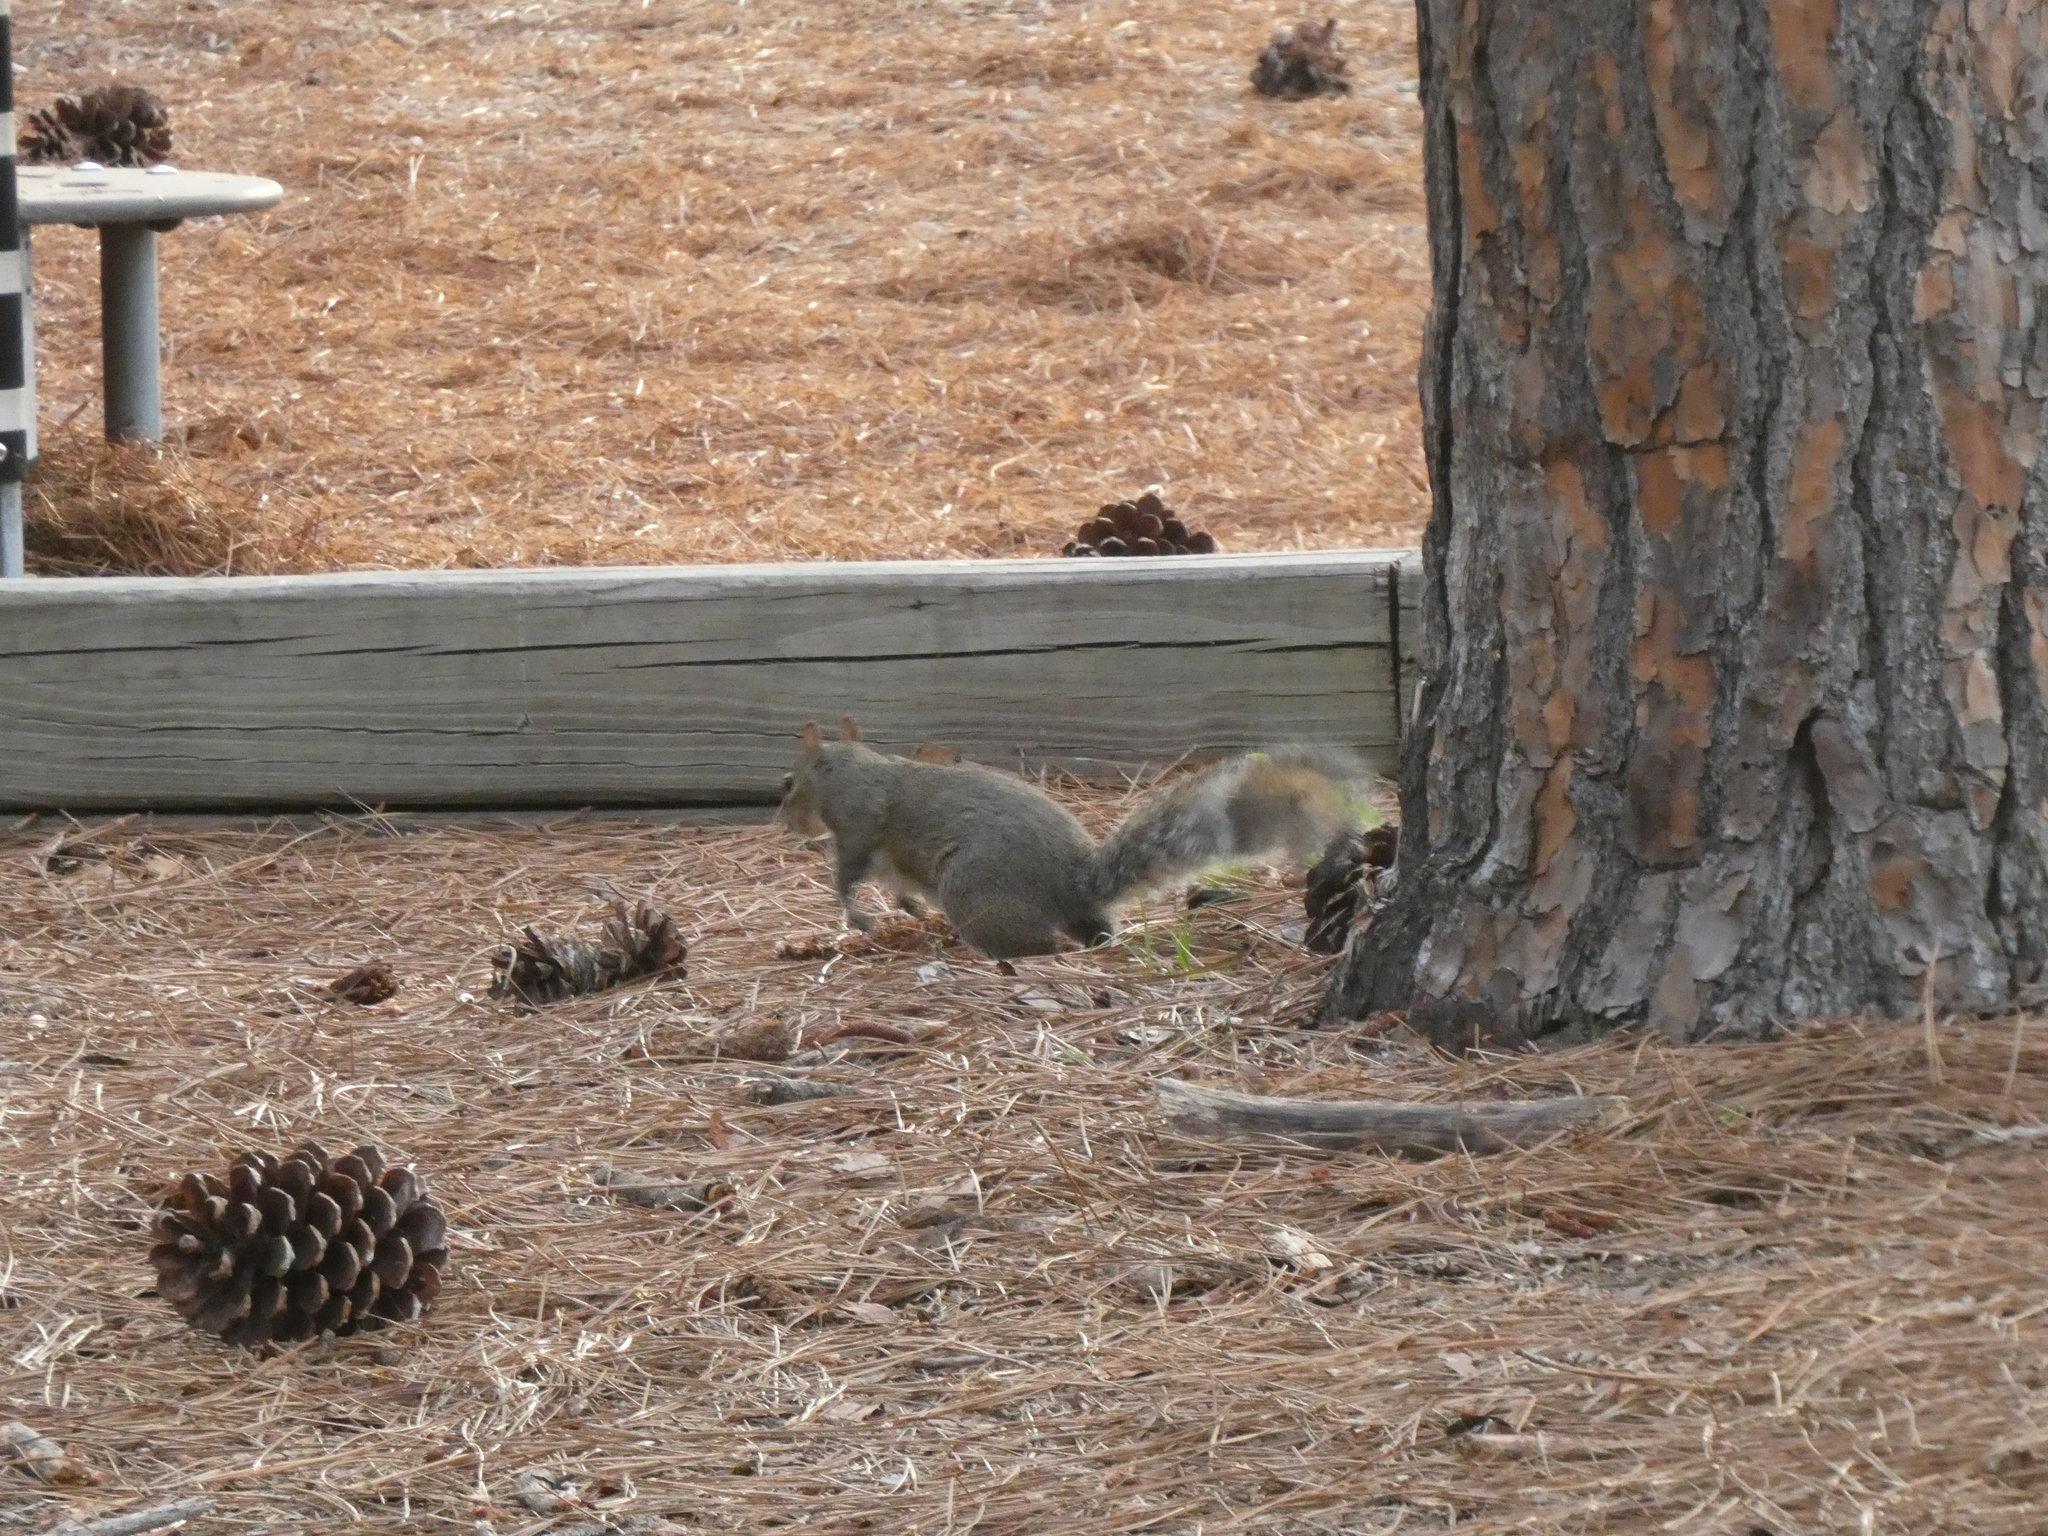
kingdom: Animalia
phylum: Chordata
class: Mammalia
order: Rodentia
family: Sciuridae
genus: Sciurus
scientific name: Sciurus carolinensis
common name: Eastern gray squirrel
